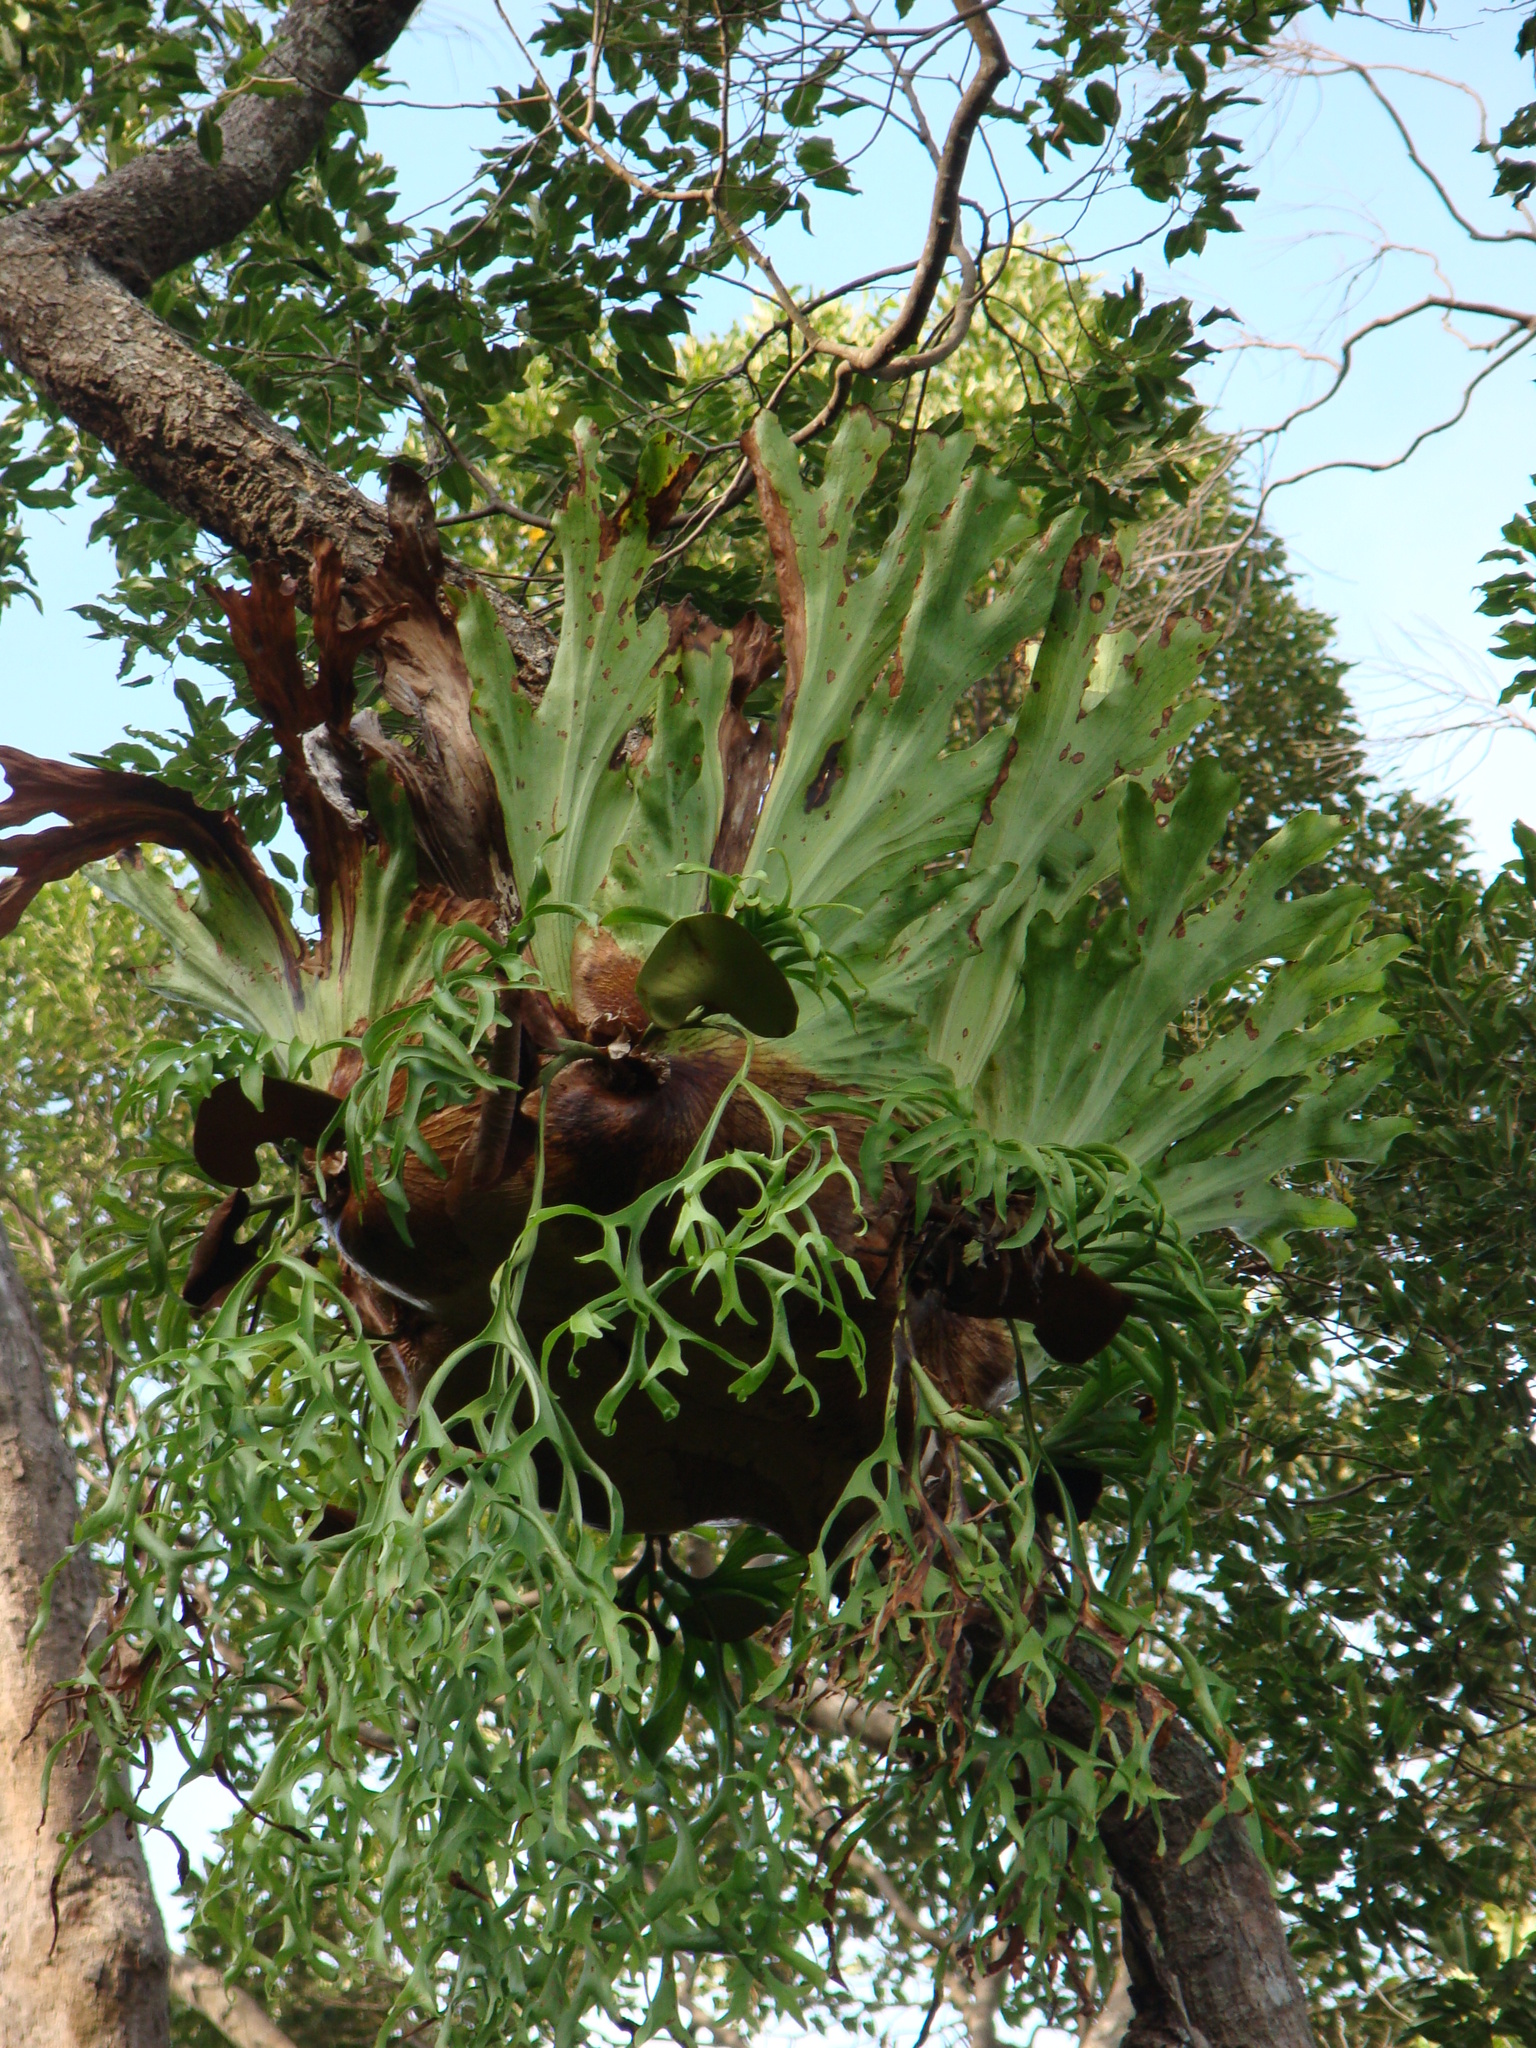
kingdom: Plantae
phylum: Tracheophyta
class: Polypodiopsida
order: Polypodiales
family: Polypodiaceae
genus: Platycerium
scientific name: Platycerium coronarium
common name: Elkhorn fern
